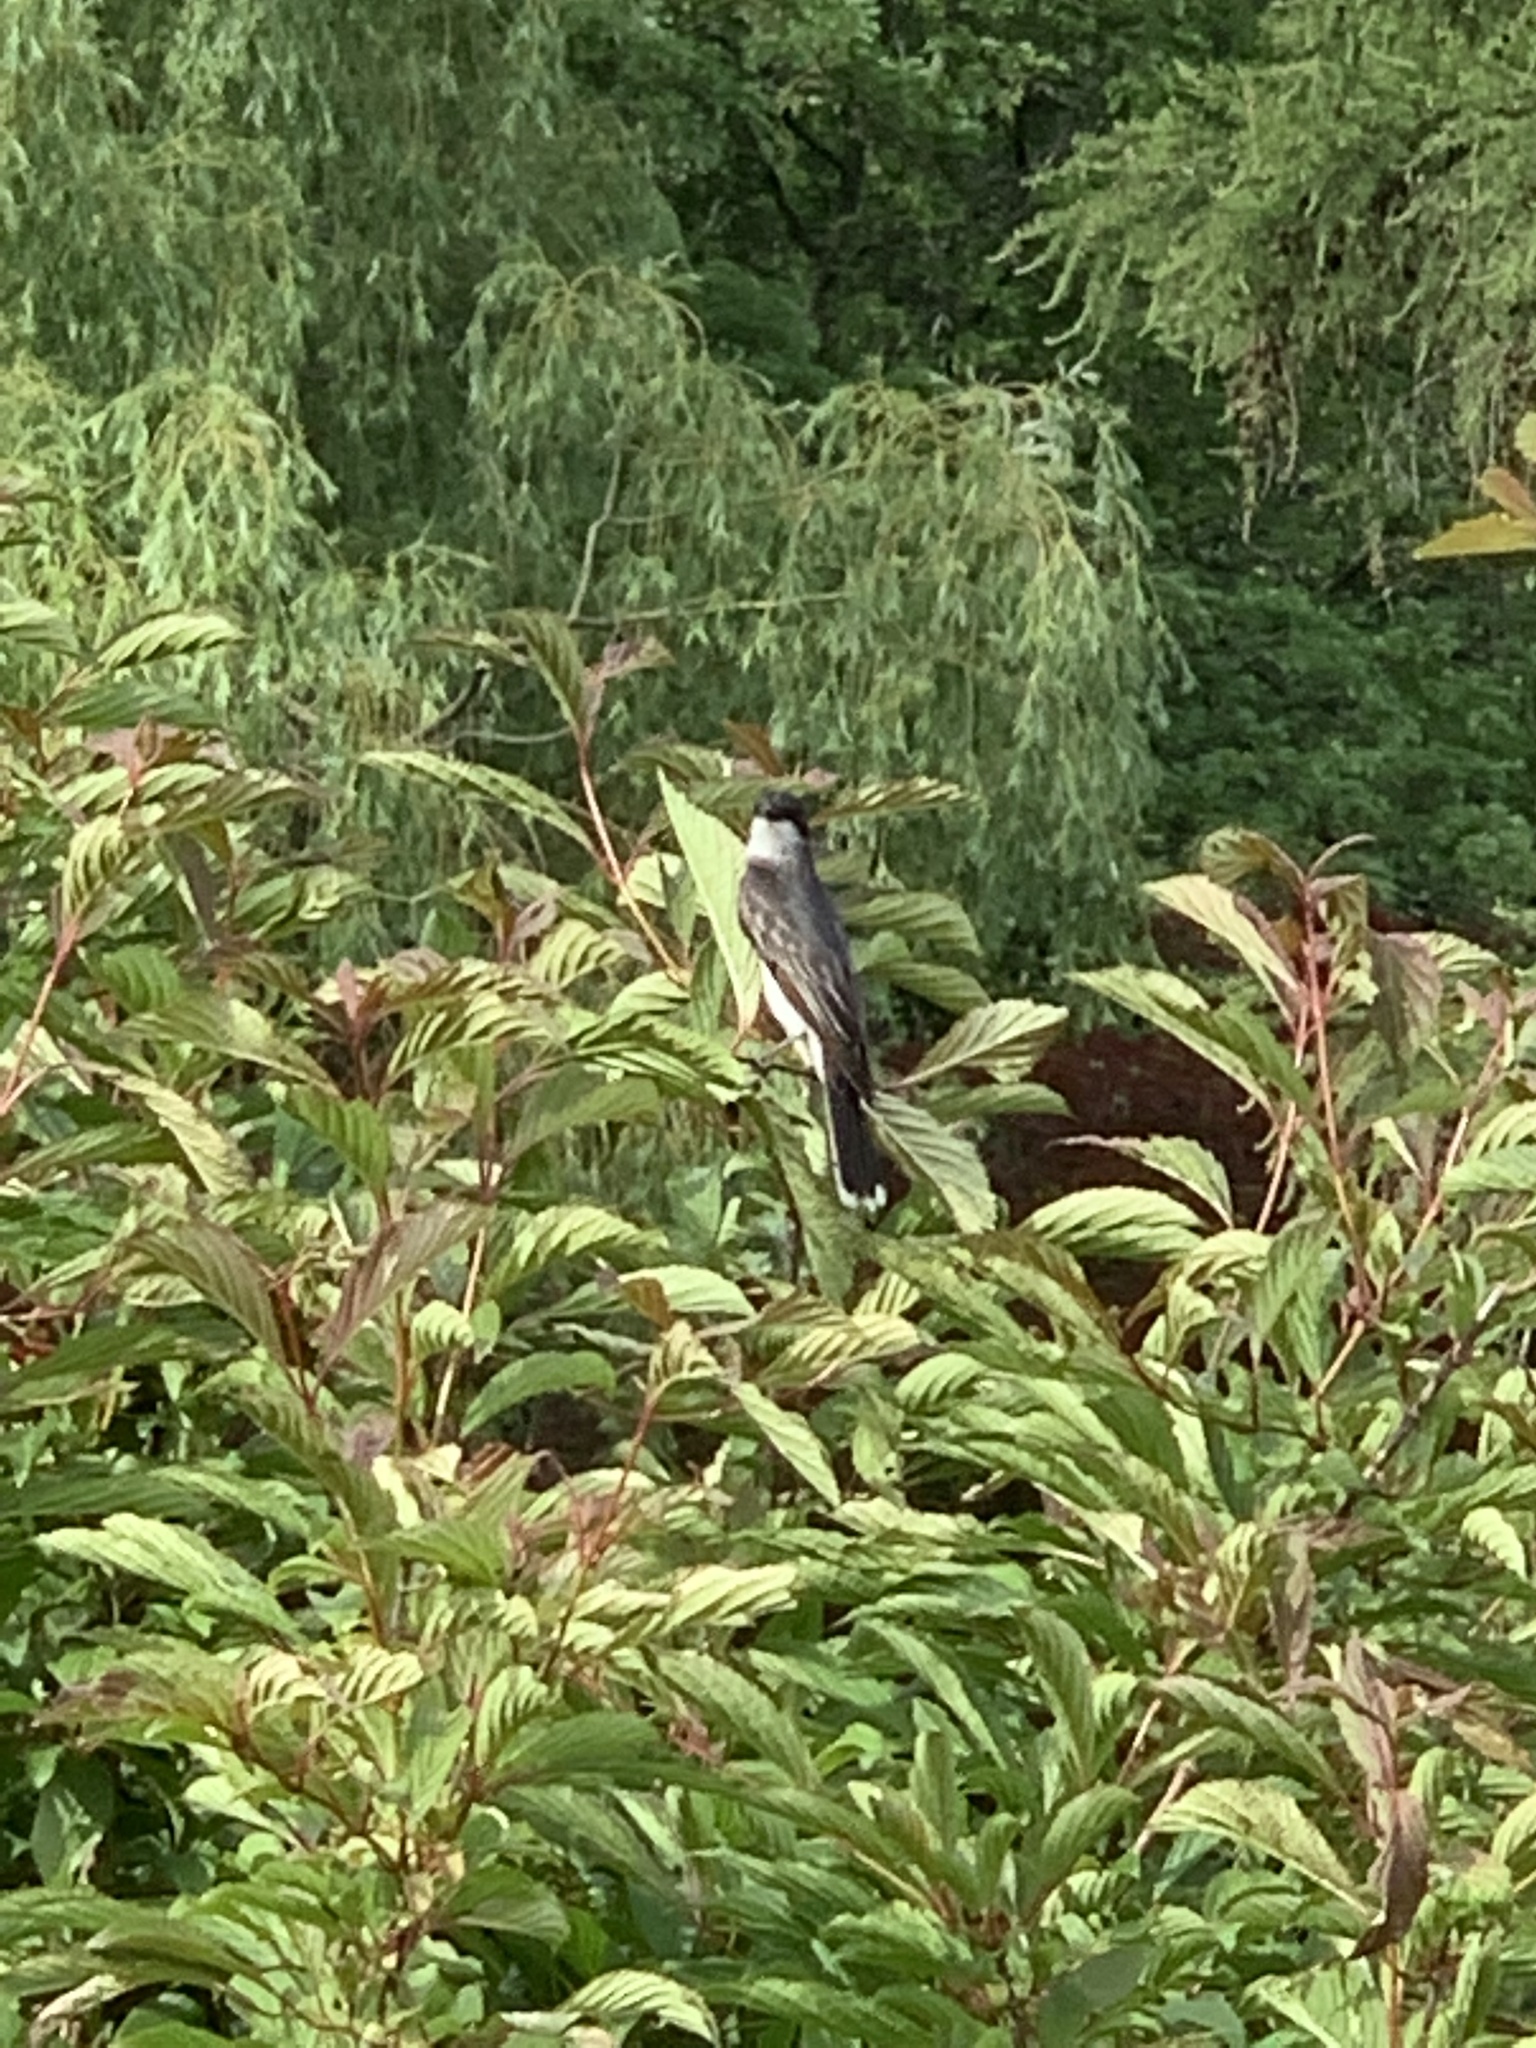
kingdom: Animalia
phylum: Chordata
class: Aves
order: Passeriformes
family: Tyrannidae
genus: Tyrannus
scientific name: Tyrannus tyrannus
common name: Eastern kingbird
